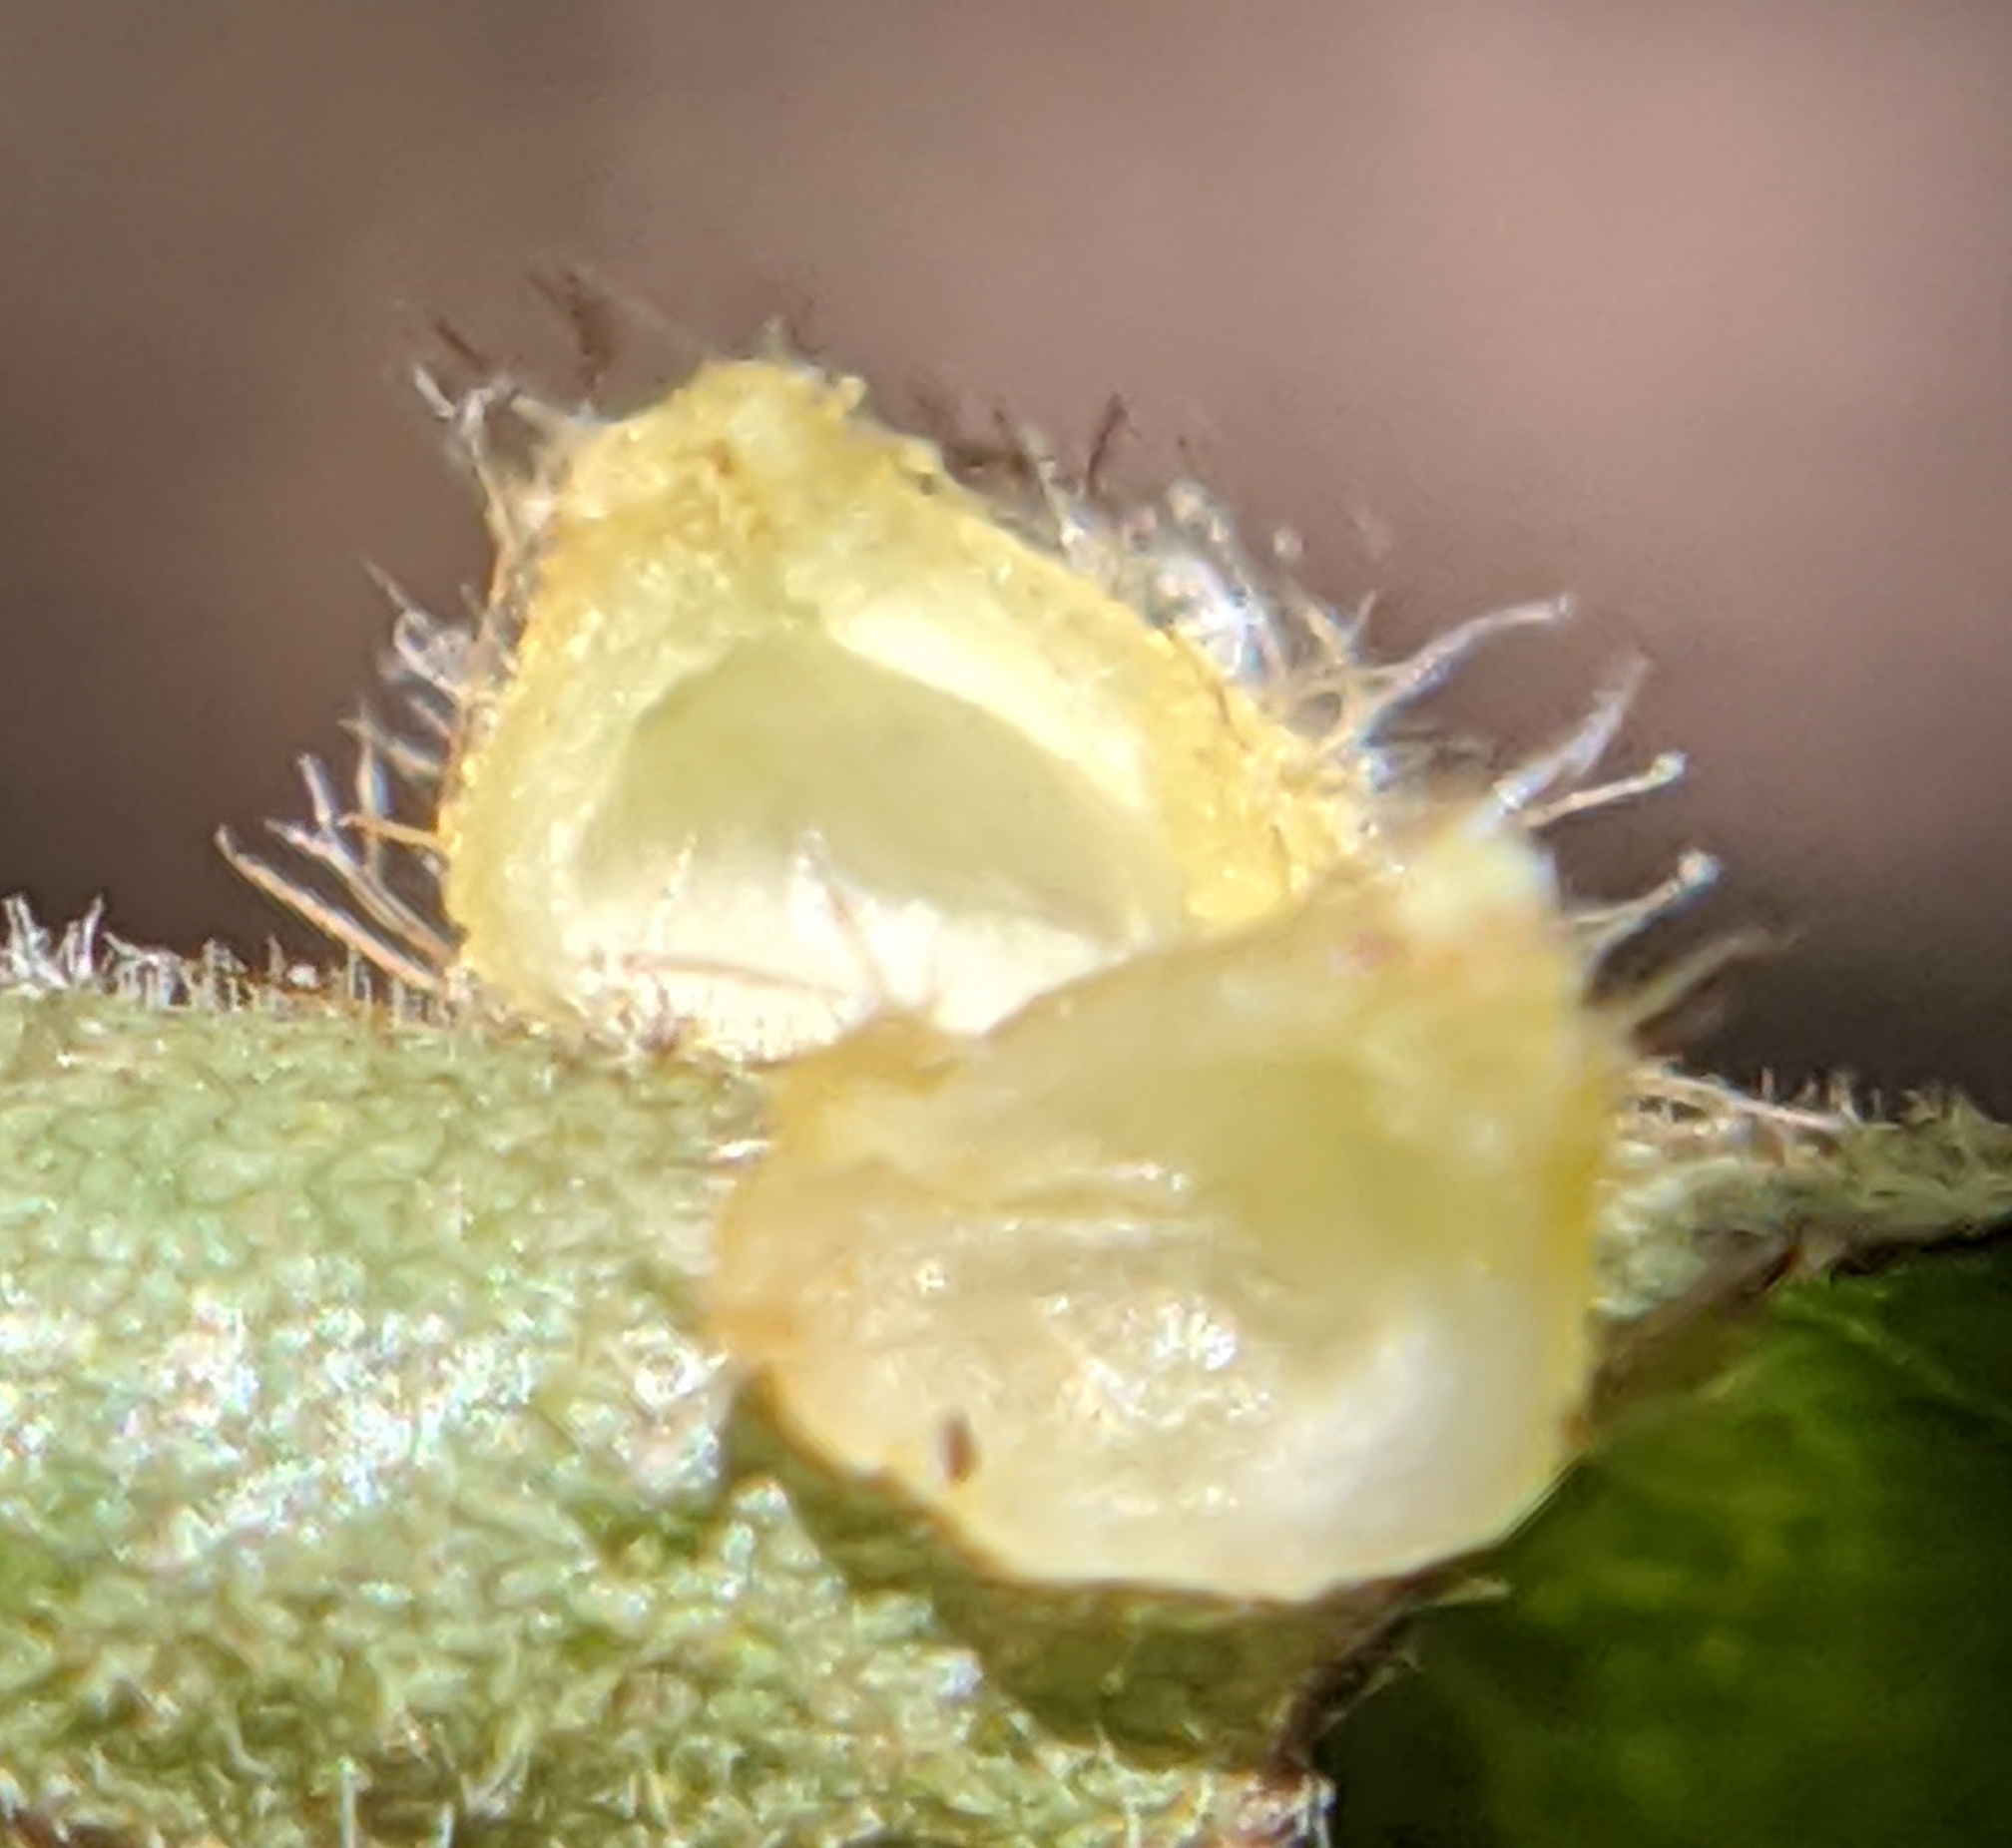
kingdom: Animalia
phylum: Arthropoda
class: Insecta
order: Diptera
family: Cecidomyiidae
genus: Caryomyia
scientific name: Caryomyia inclinata
